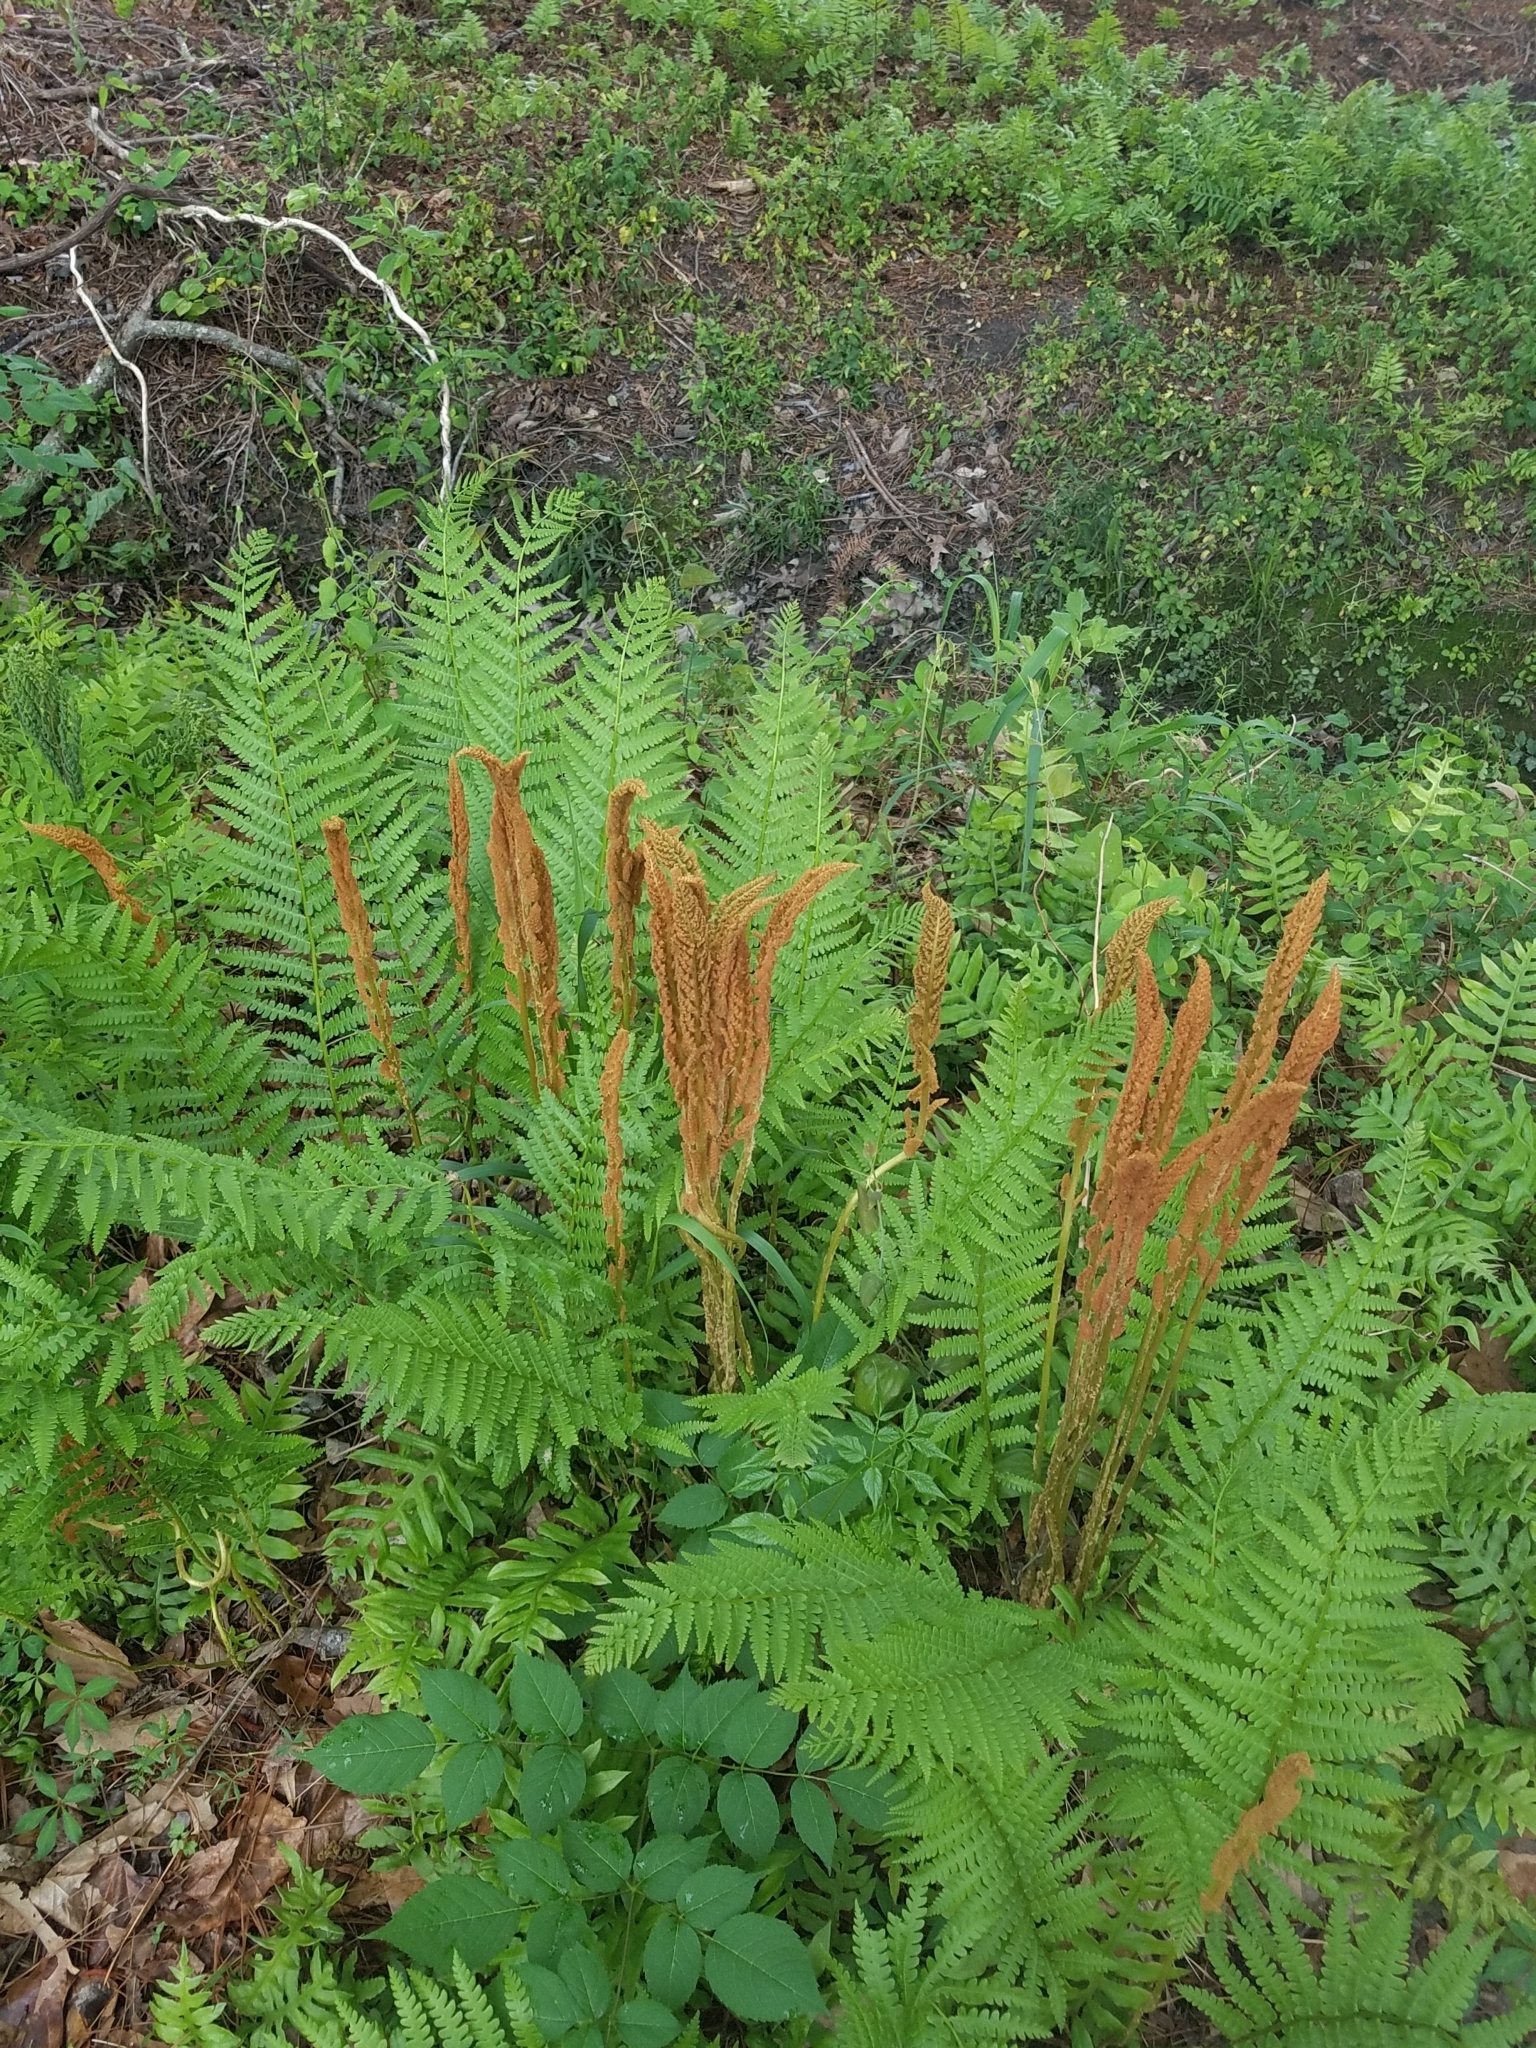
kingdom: Plantae
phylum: Tracheophyta
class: Polypodiopsida
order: Osmundales
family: Osmundaceae
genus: Osmundastrum
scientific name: Osmundastrum cinnamomeum
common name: Cinnamon fern
